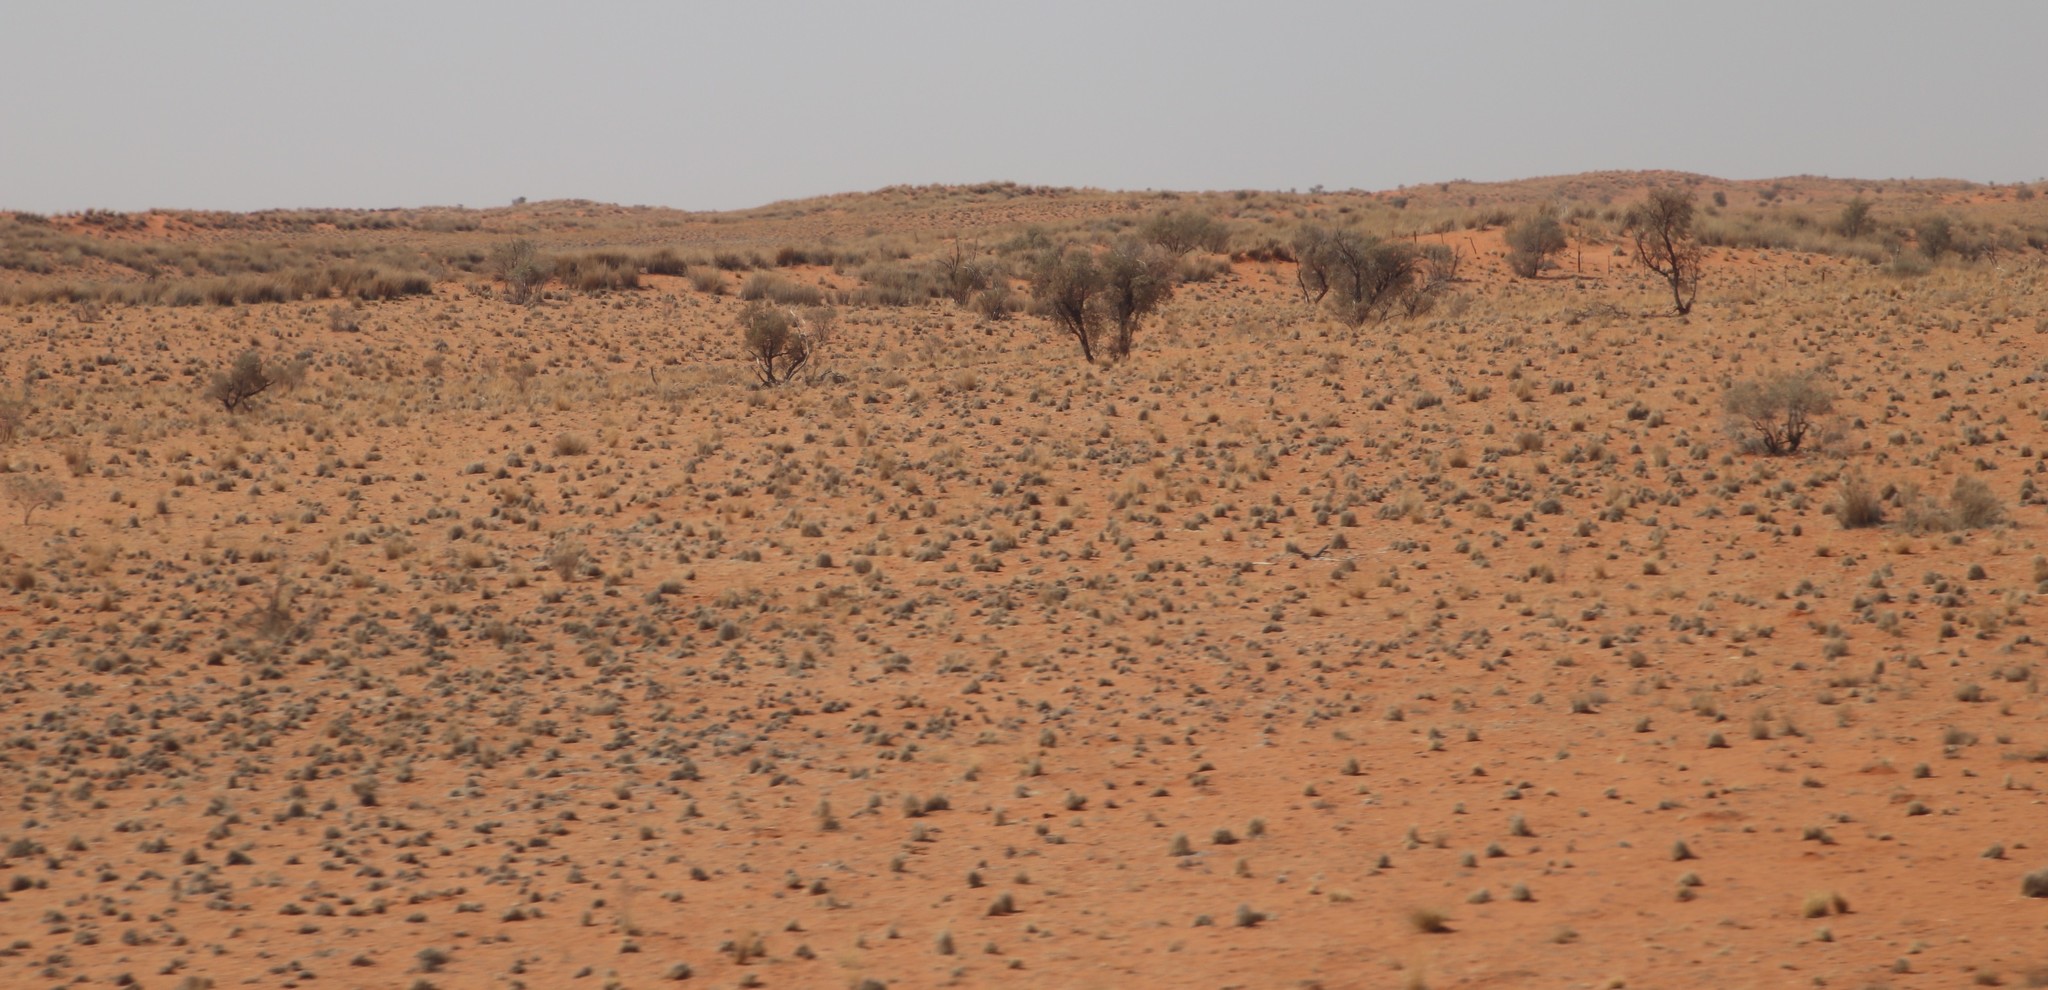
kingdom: Plantae
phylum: Tracheophyta
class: Magnoliopsida
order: Fabales
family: Fabaceae
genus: Vachellia
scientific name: Vachellia haematoxylon
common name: Grey camel thorn
